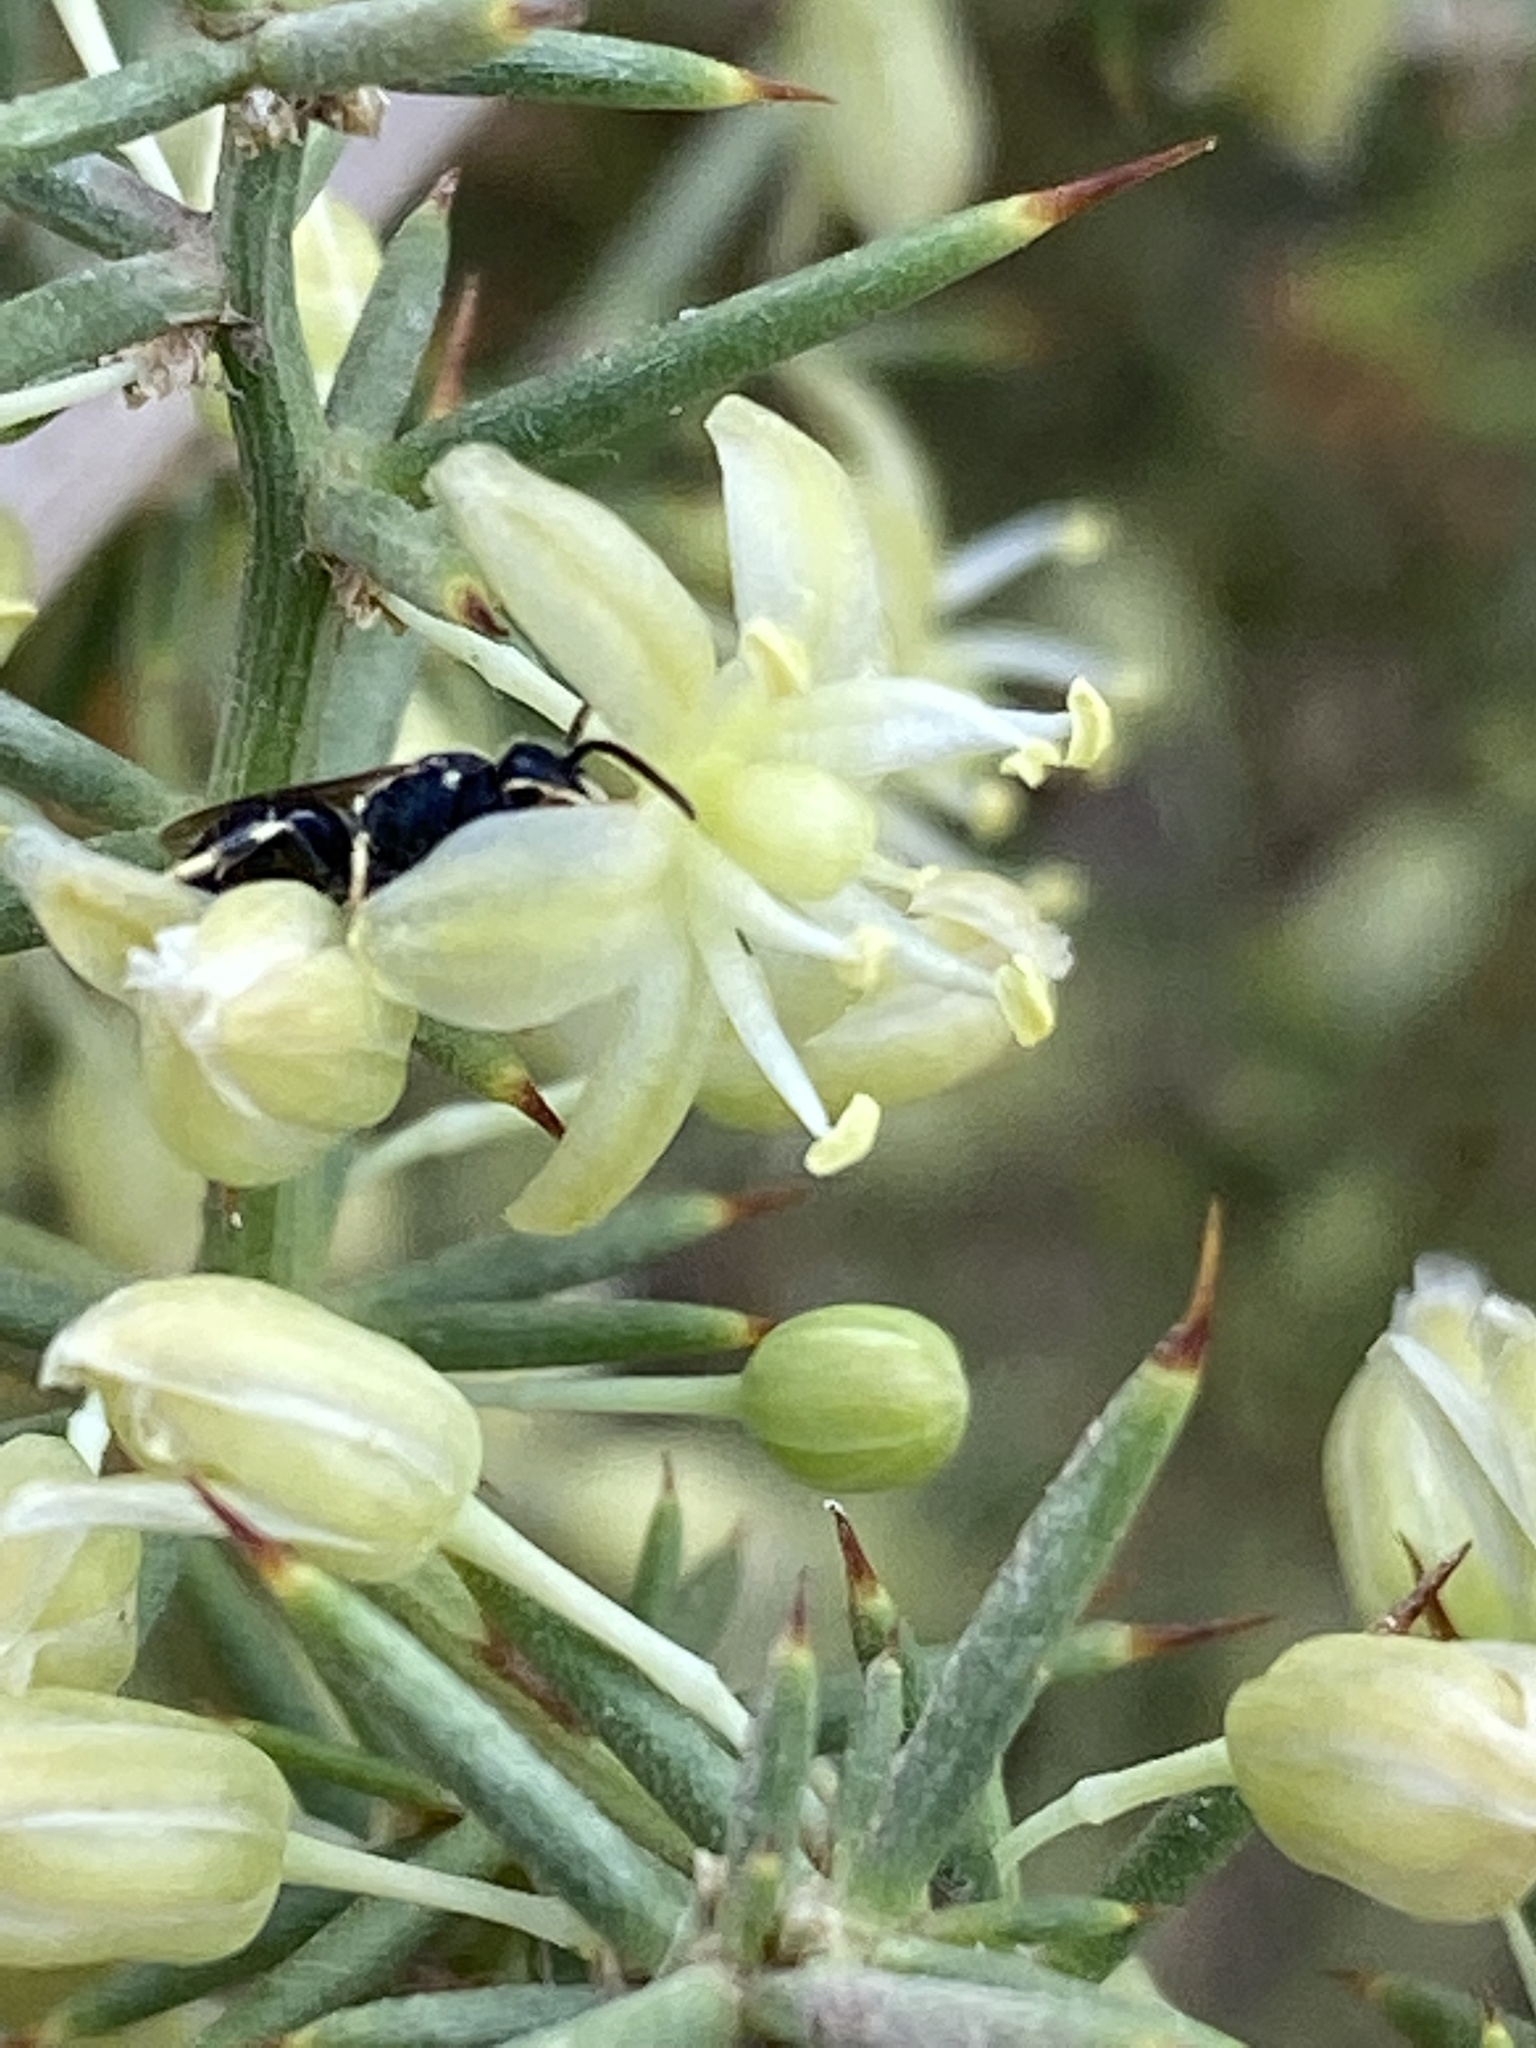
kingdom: Plantae
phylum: Tracheophyta
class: Liliopsida
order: Asparagales
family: Asparagaceae
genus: Asparagus
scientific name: Asparagus acutifolius
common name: Wild asparagus
